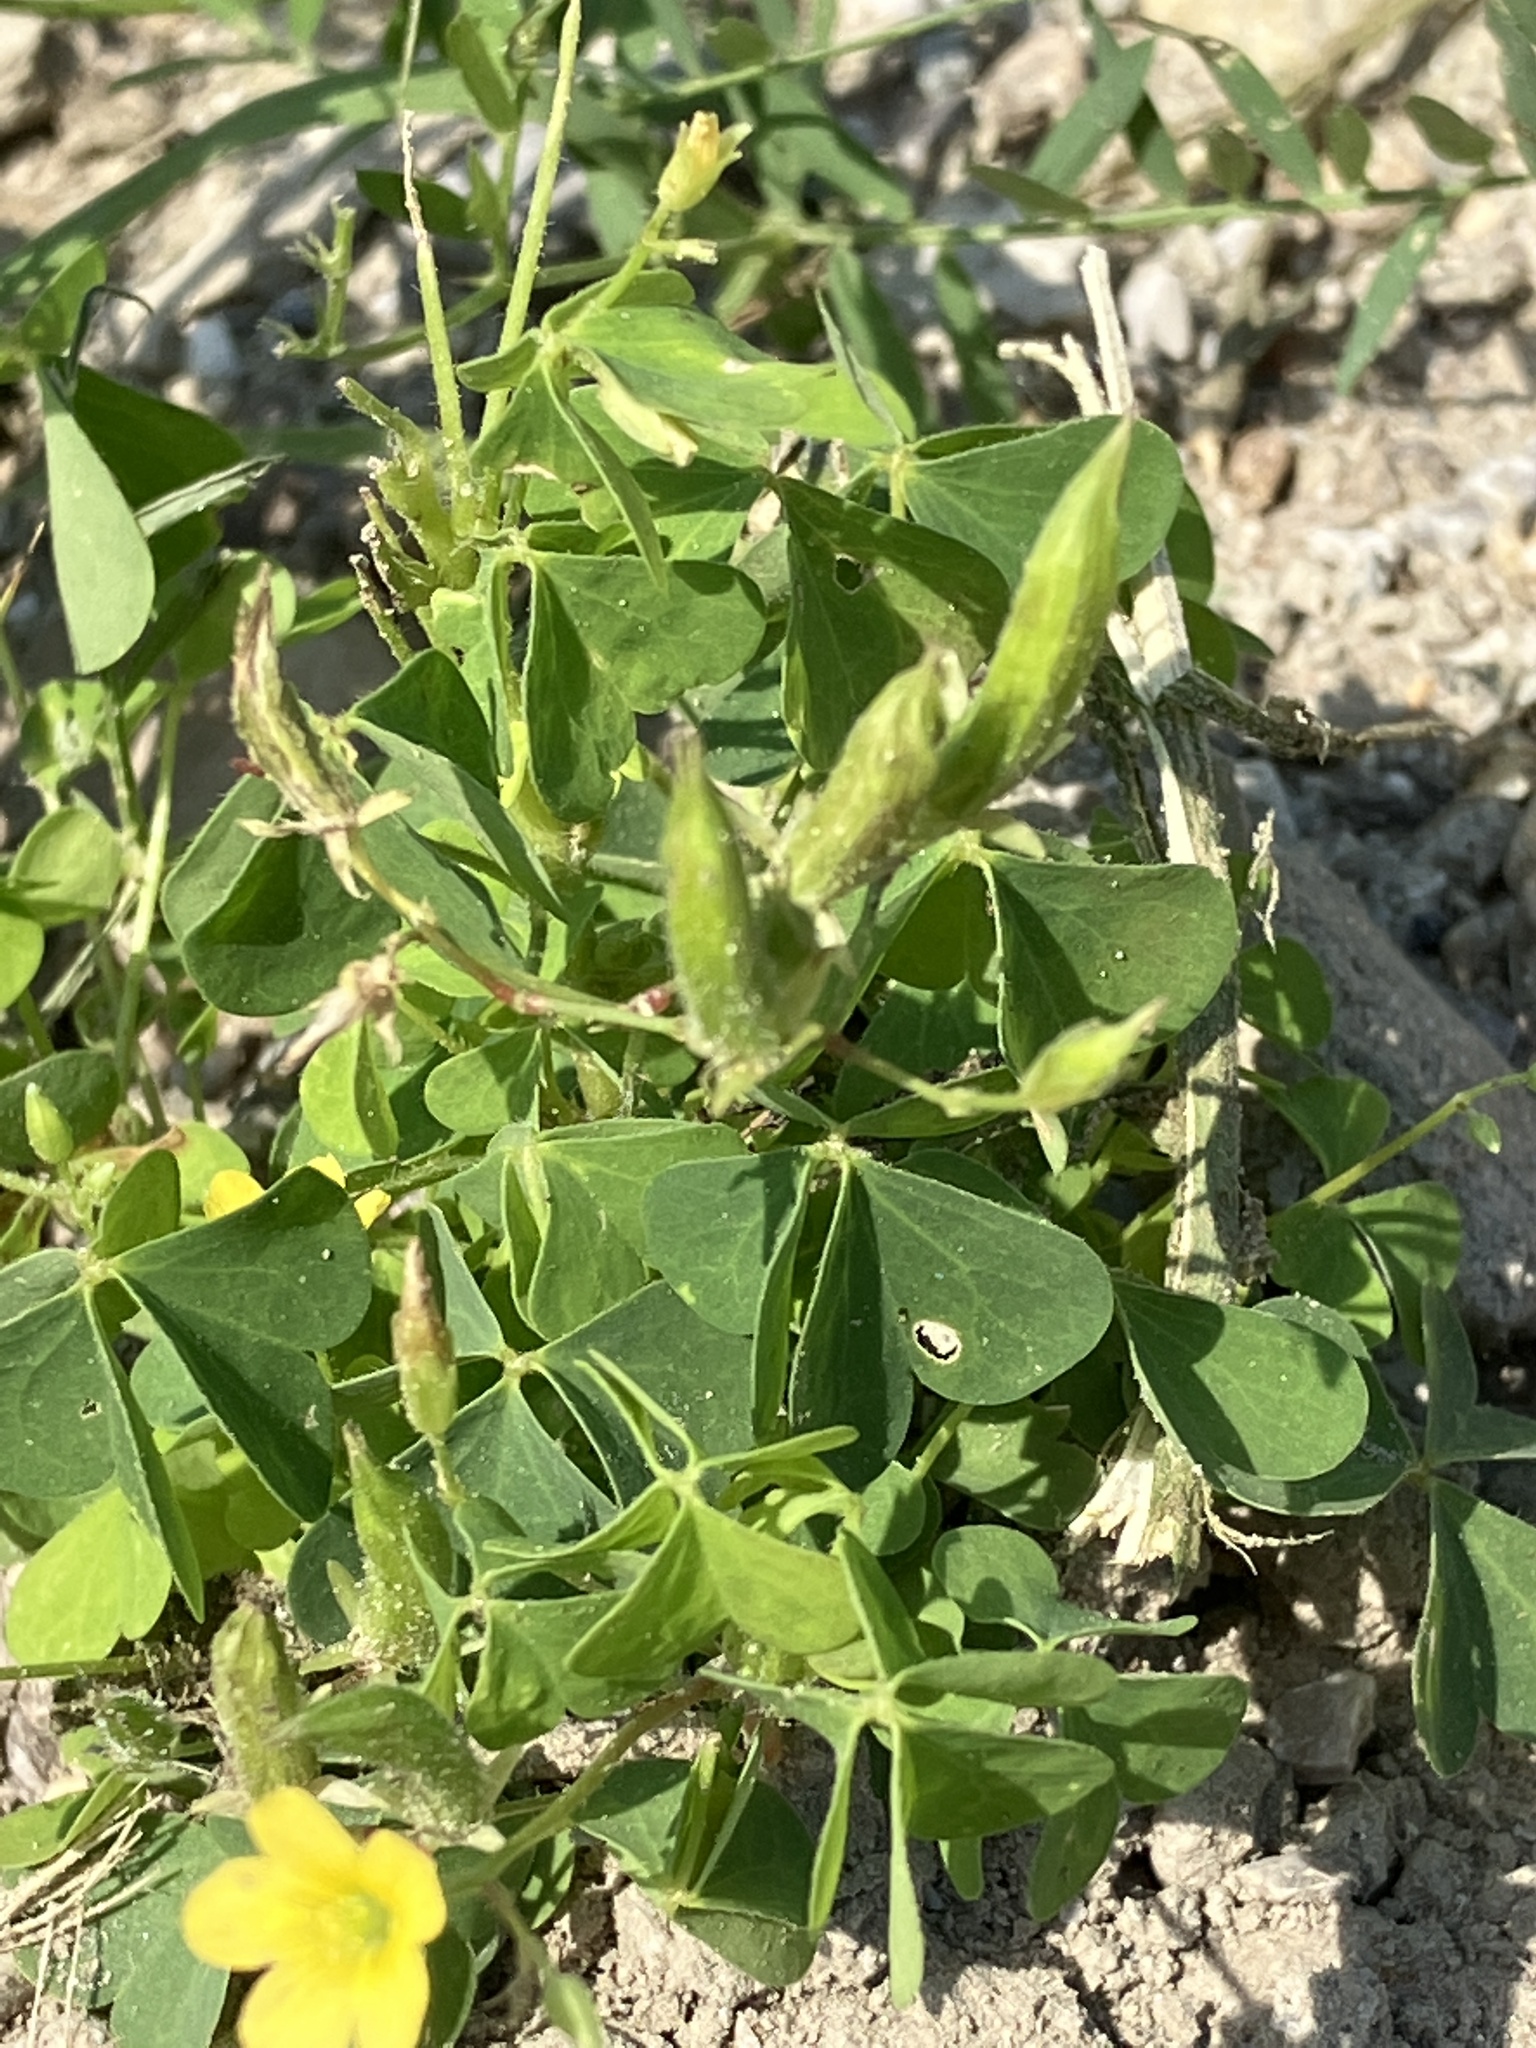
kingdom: Plantae
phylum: Tracheophyta
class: Magnoliopsida
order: Oxalidales
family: Oxalidaceae
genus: Oxalis
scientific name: Oxalis stricta
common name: Upright yellow-sorrel
